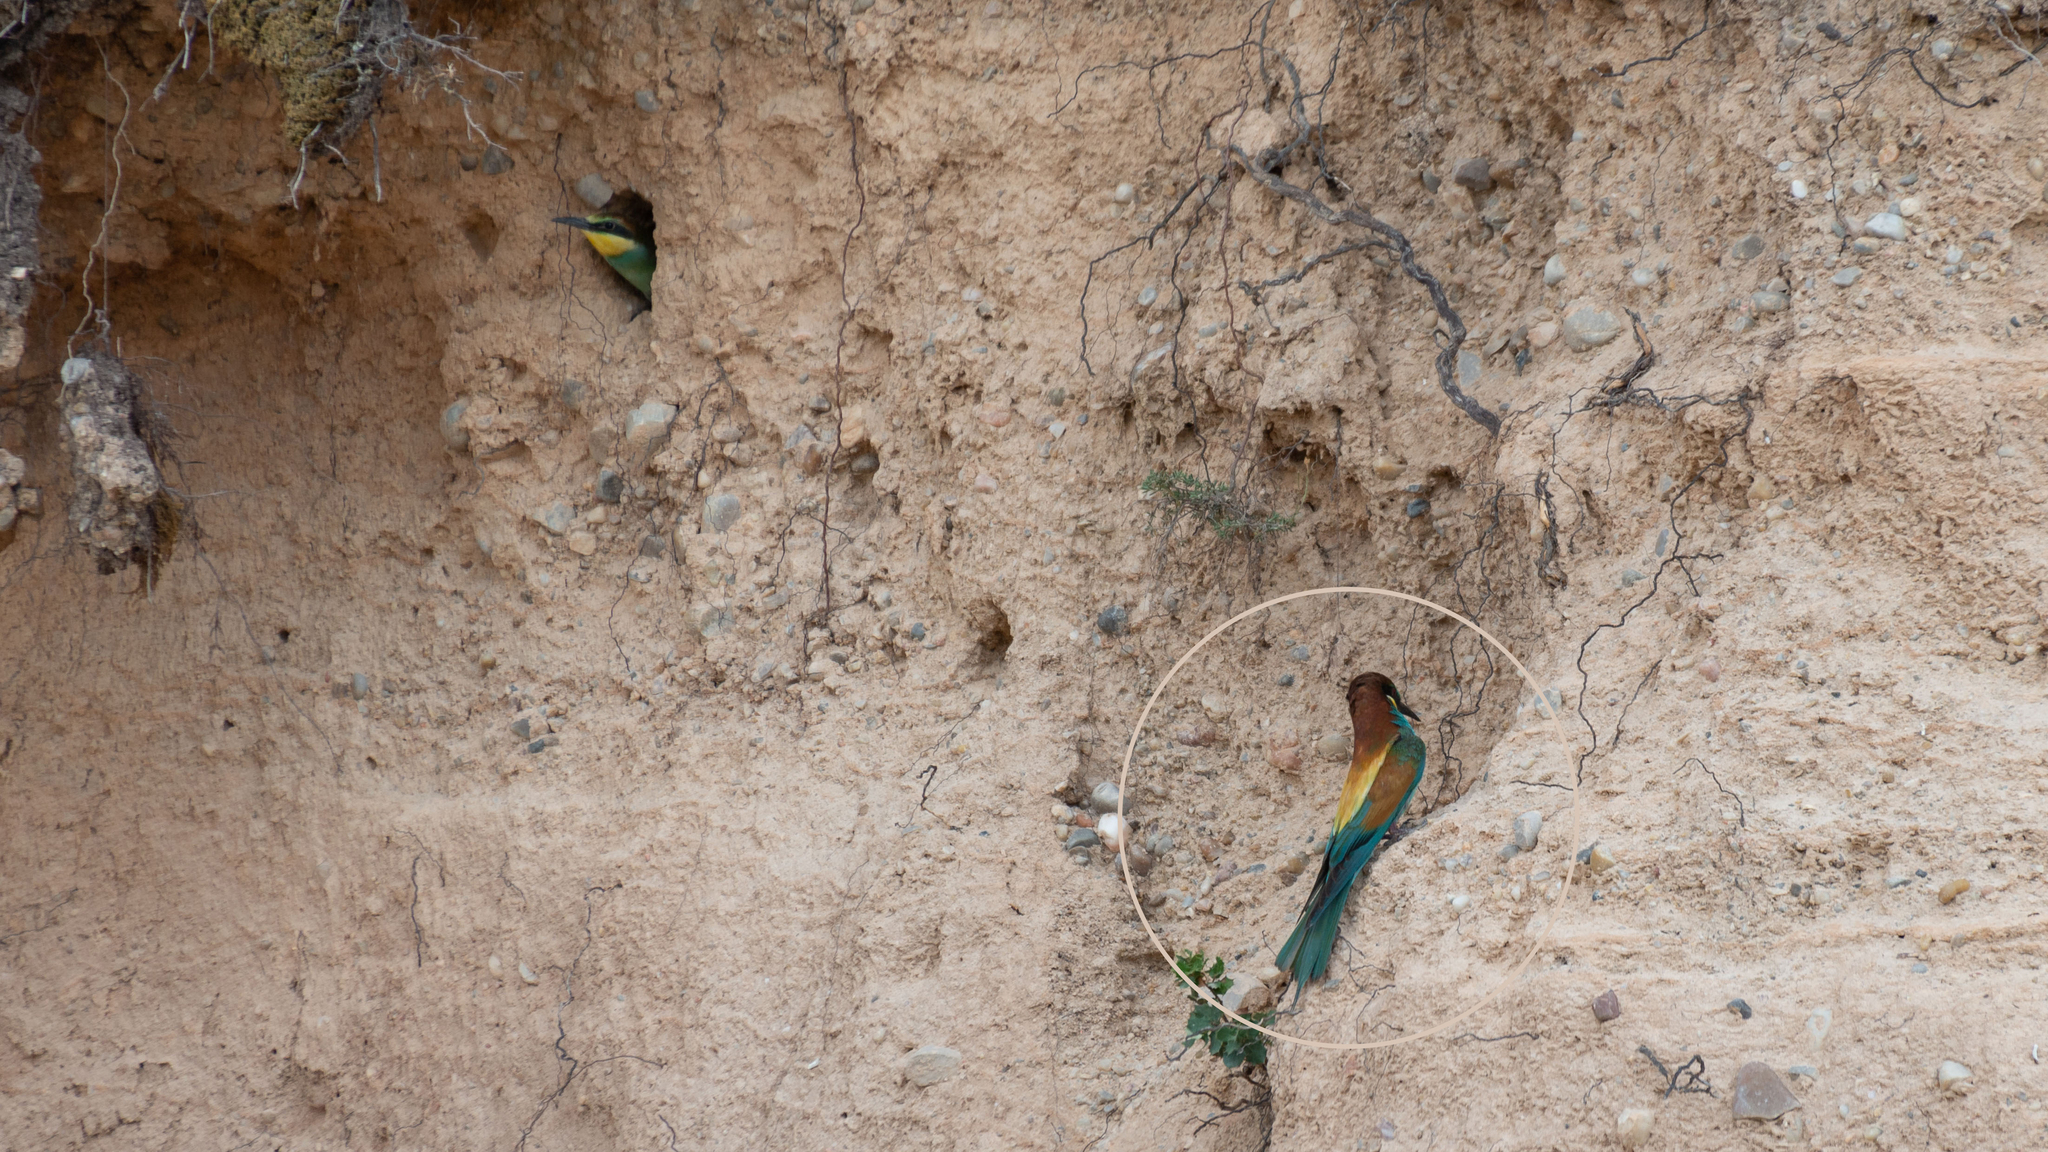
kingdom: Animalia
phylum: Chordata
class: Aves
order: Coraciiformes
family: Meropidae
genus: Merops
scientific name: Merops apiaster
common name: European bee-eater
